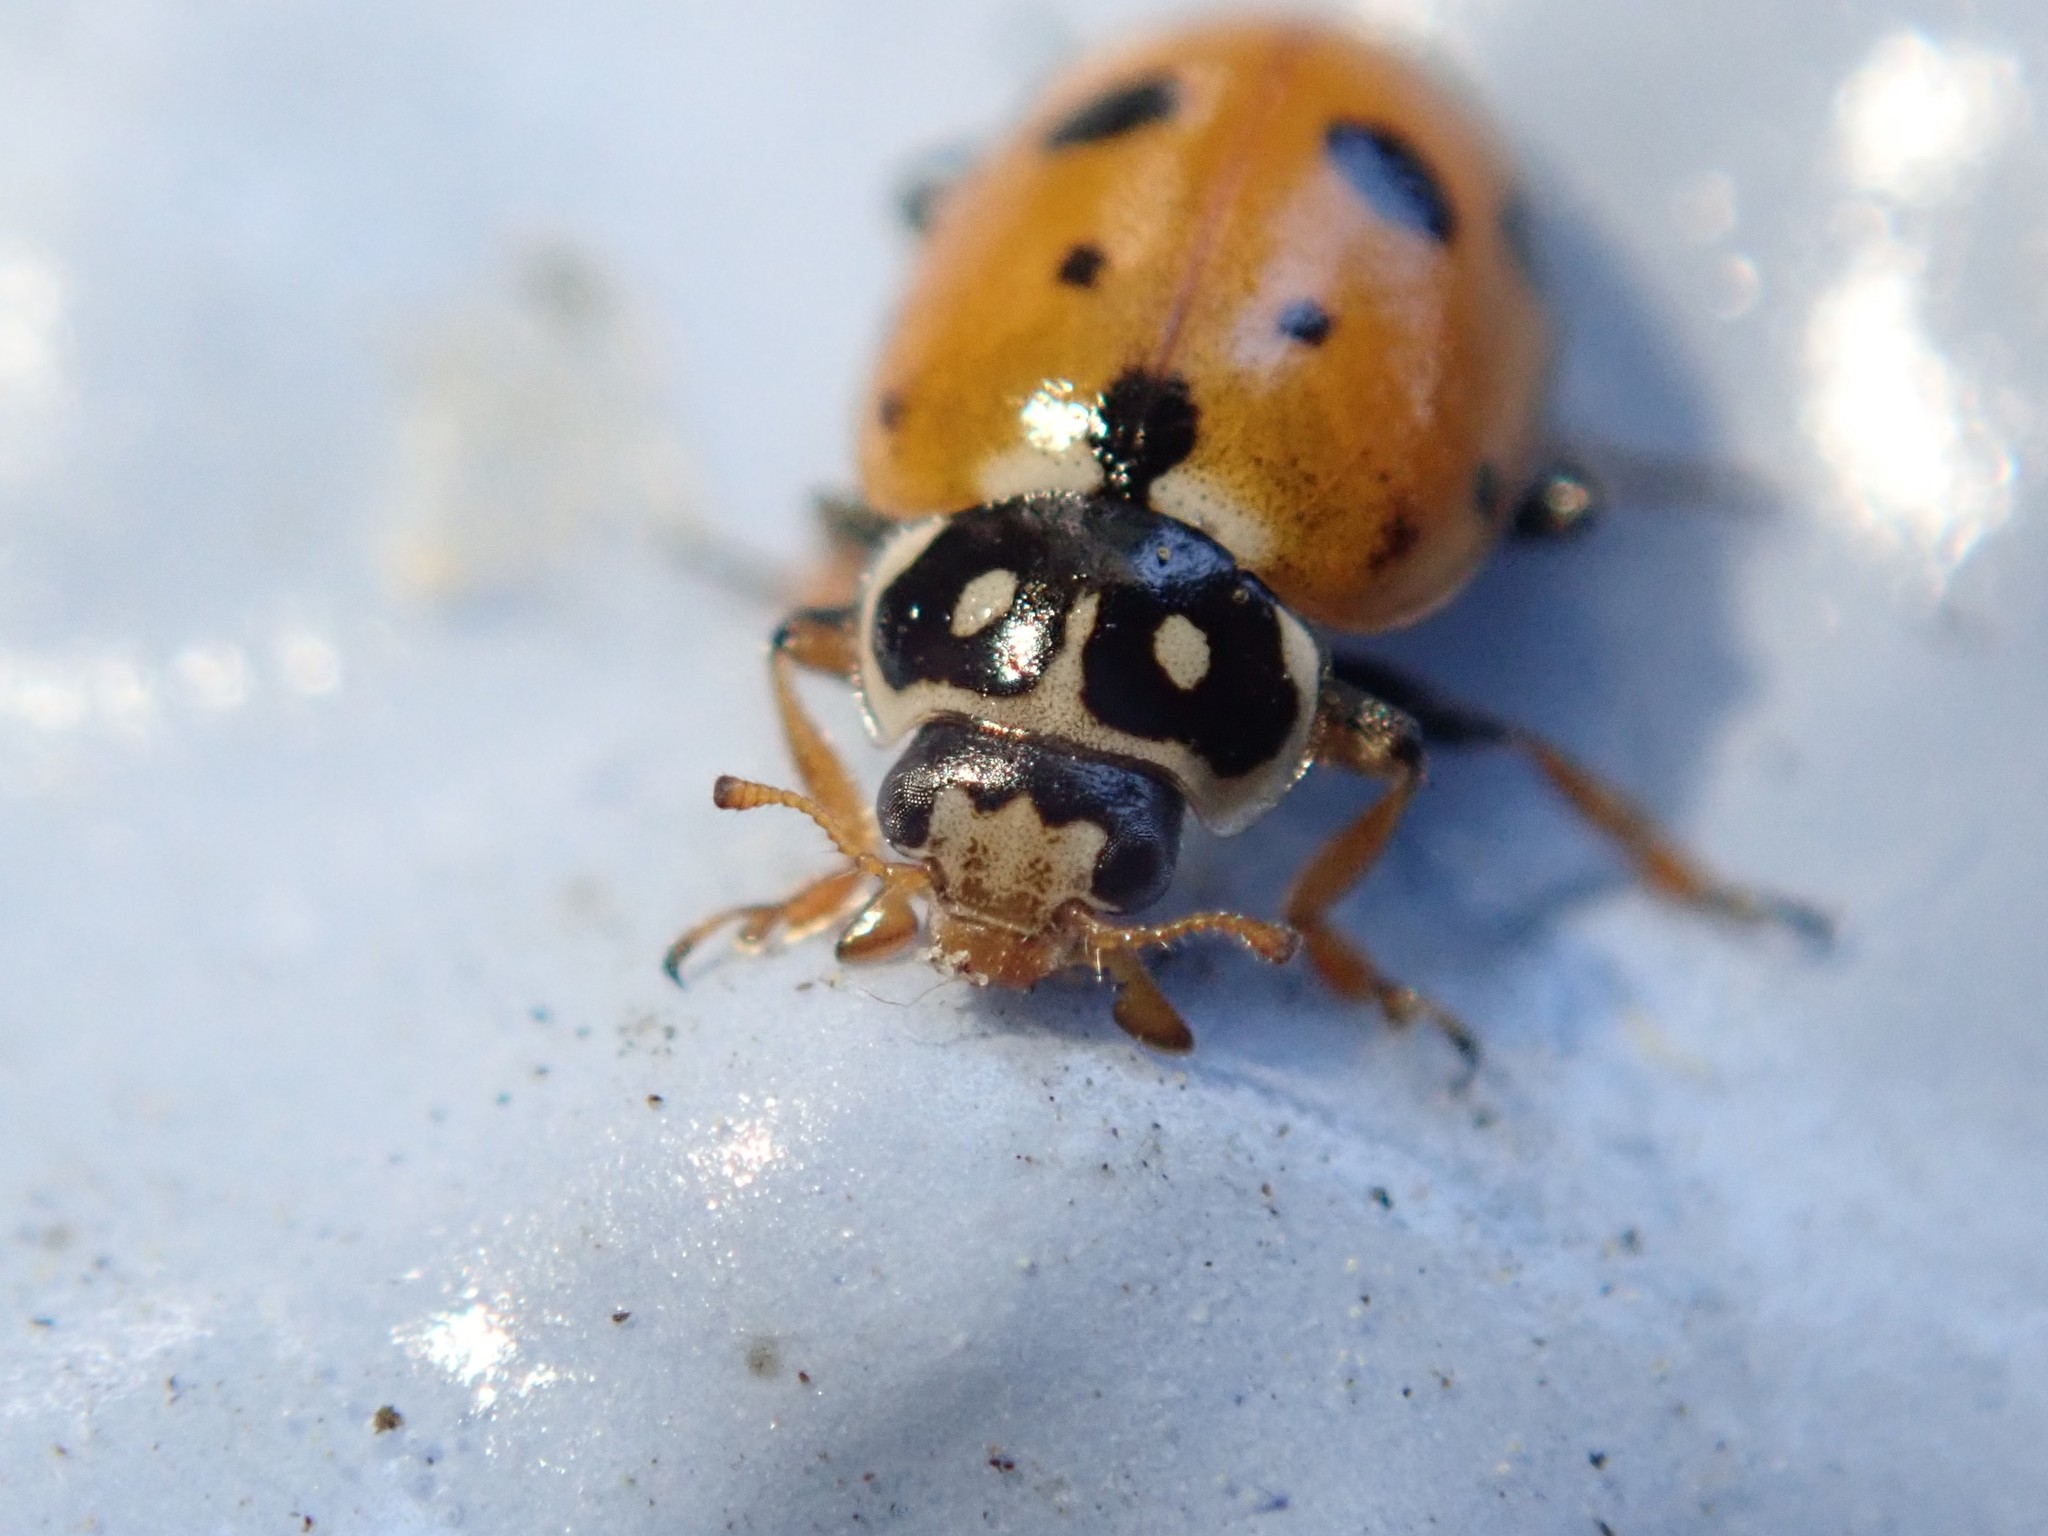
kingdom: Animalia
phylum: Arthropoda
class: Insecta
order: Coleoptera
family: Coccinellidae
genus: Hippodamia
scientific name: Hippodamia variegata
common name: Ladybird beetle
